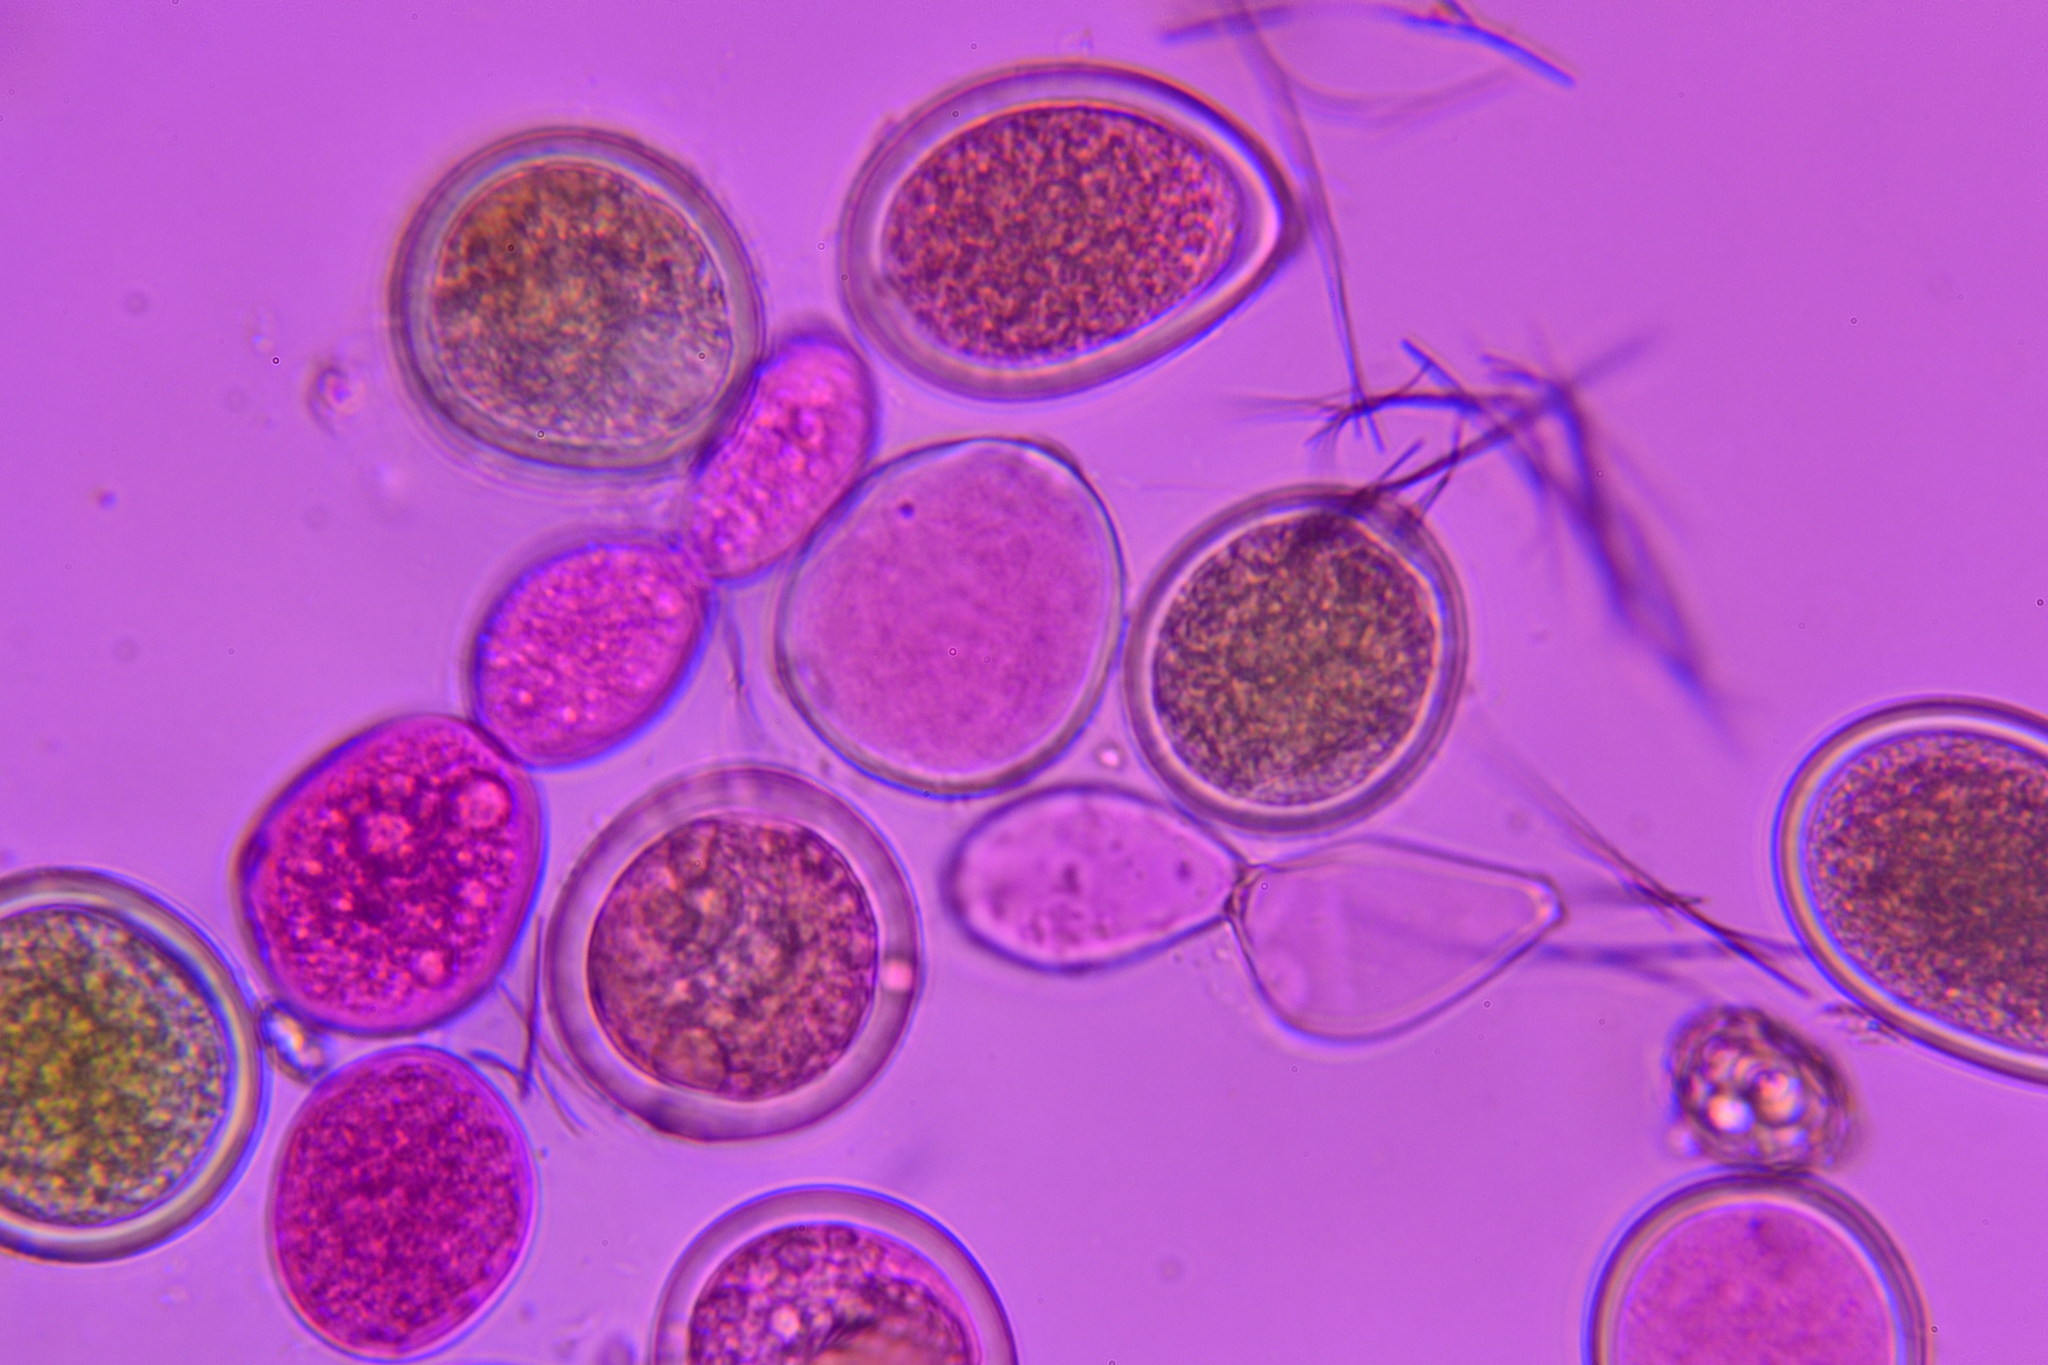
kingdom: Fungi
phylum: Ascomycota
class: Pezizomycetes
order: Pezizales
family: Pyronemataceae
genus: Sphaerosporium
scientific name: Sphaerosporium lignatile
